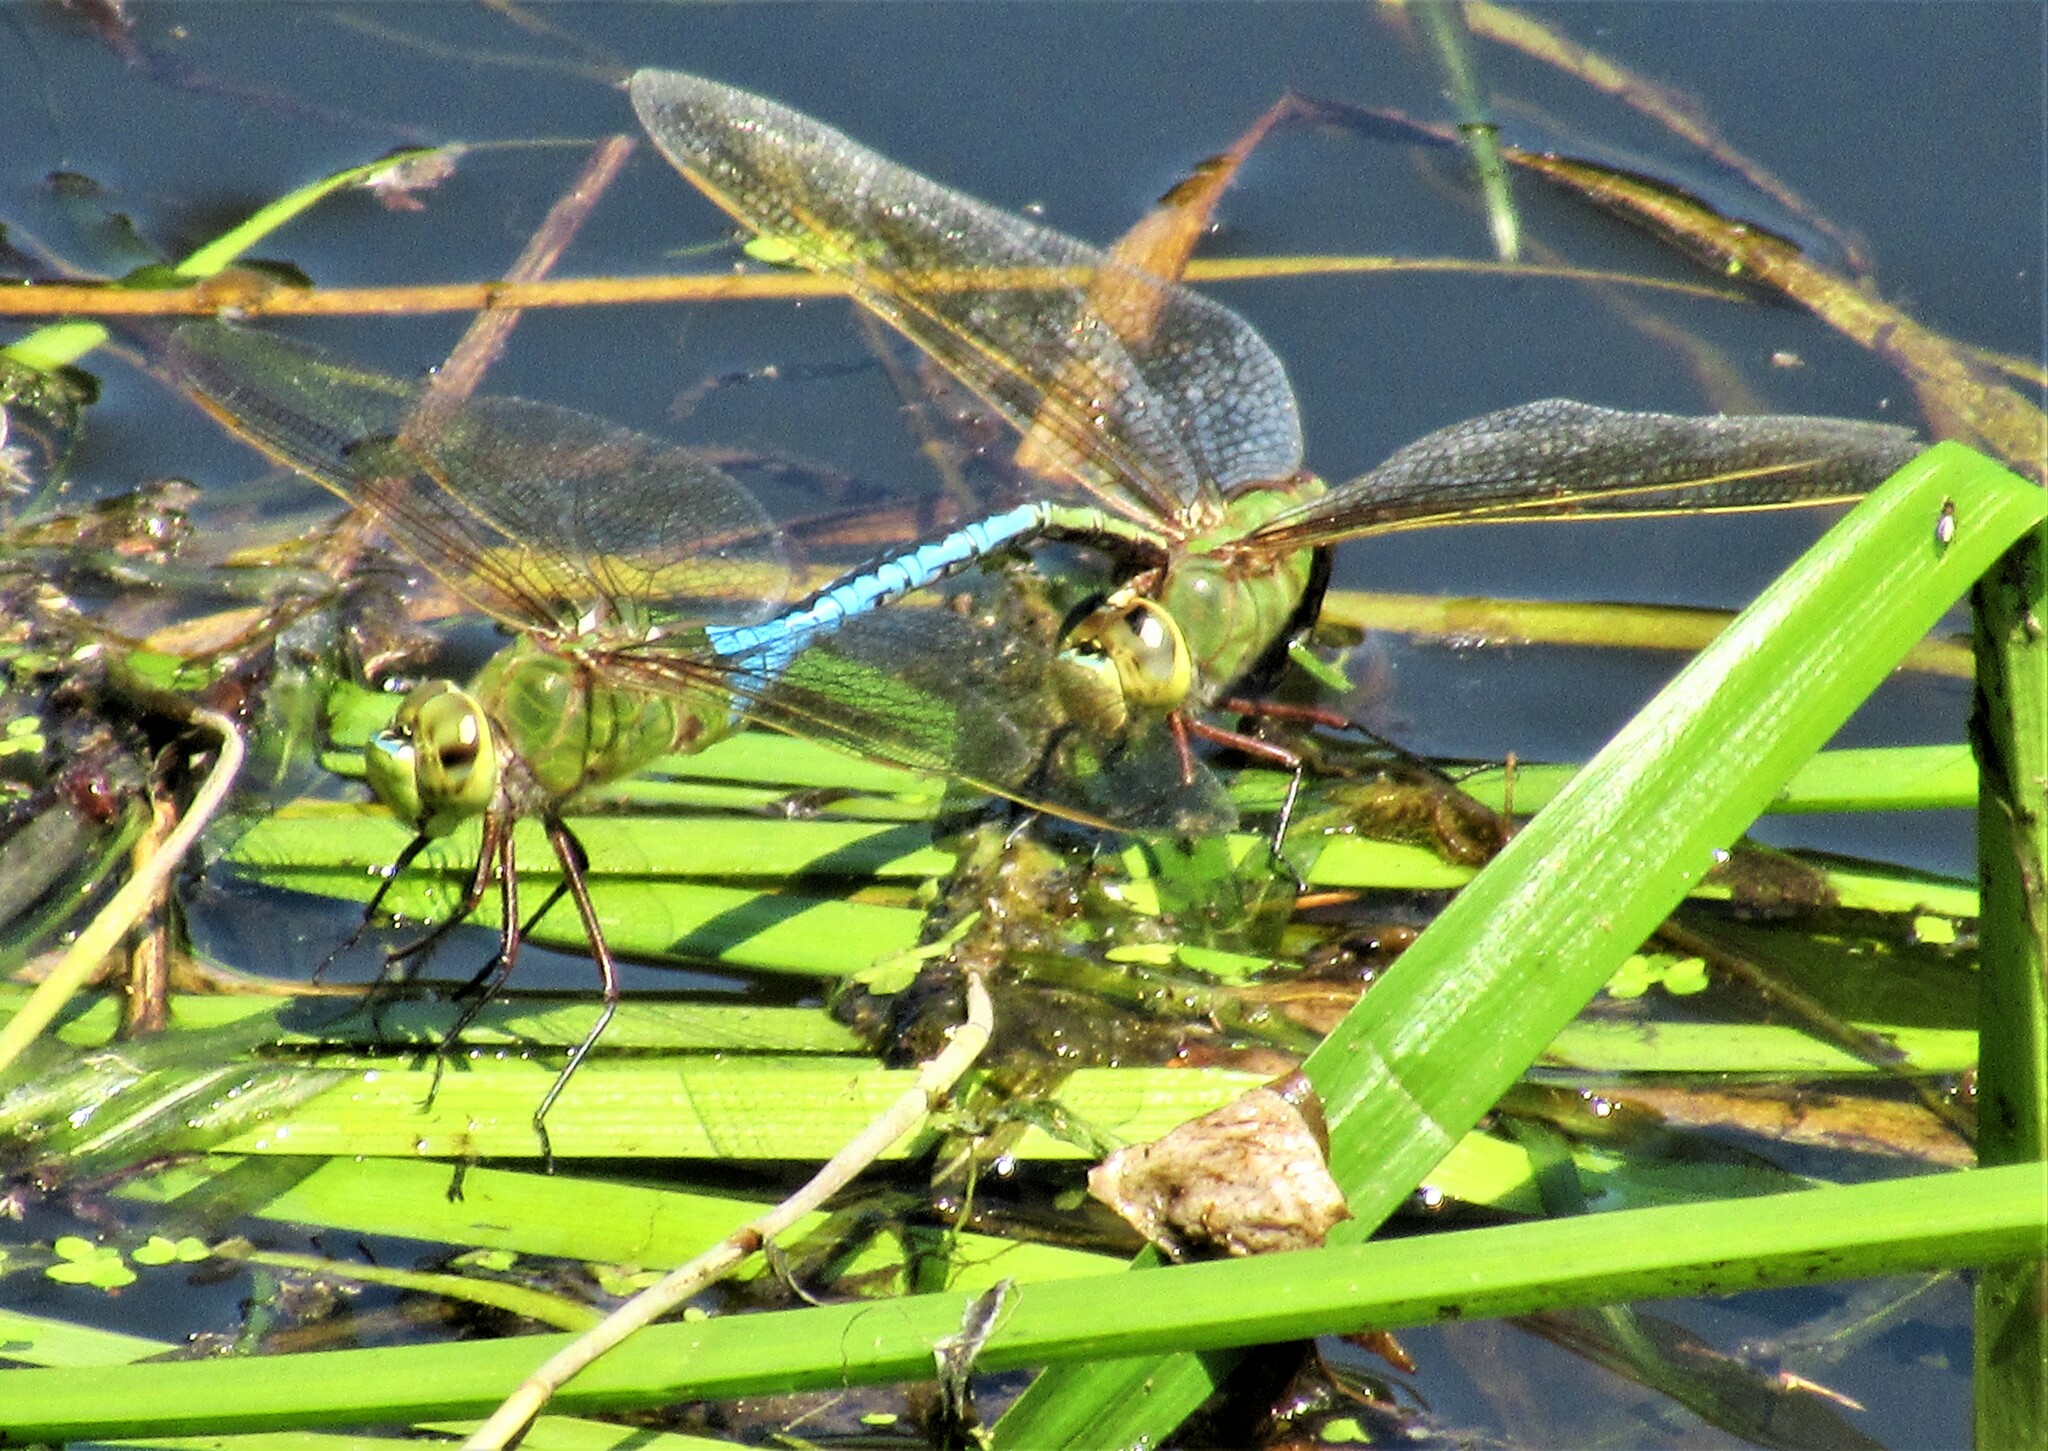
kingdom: Animalia
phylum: Arthropoda
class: Insecta
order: Odonata
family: Aeshnidae
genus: Anax
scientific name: Anax junius
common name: Common green darner
